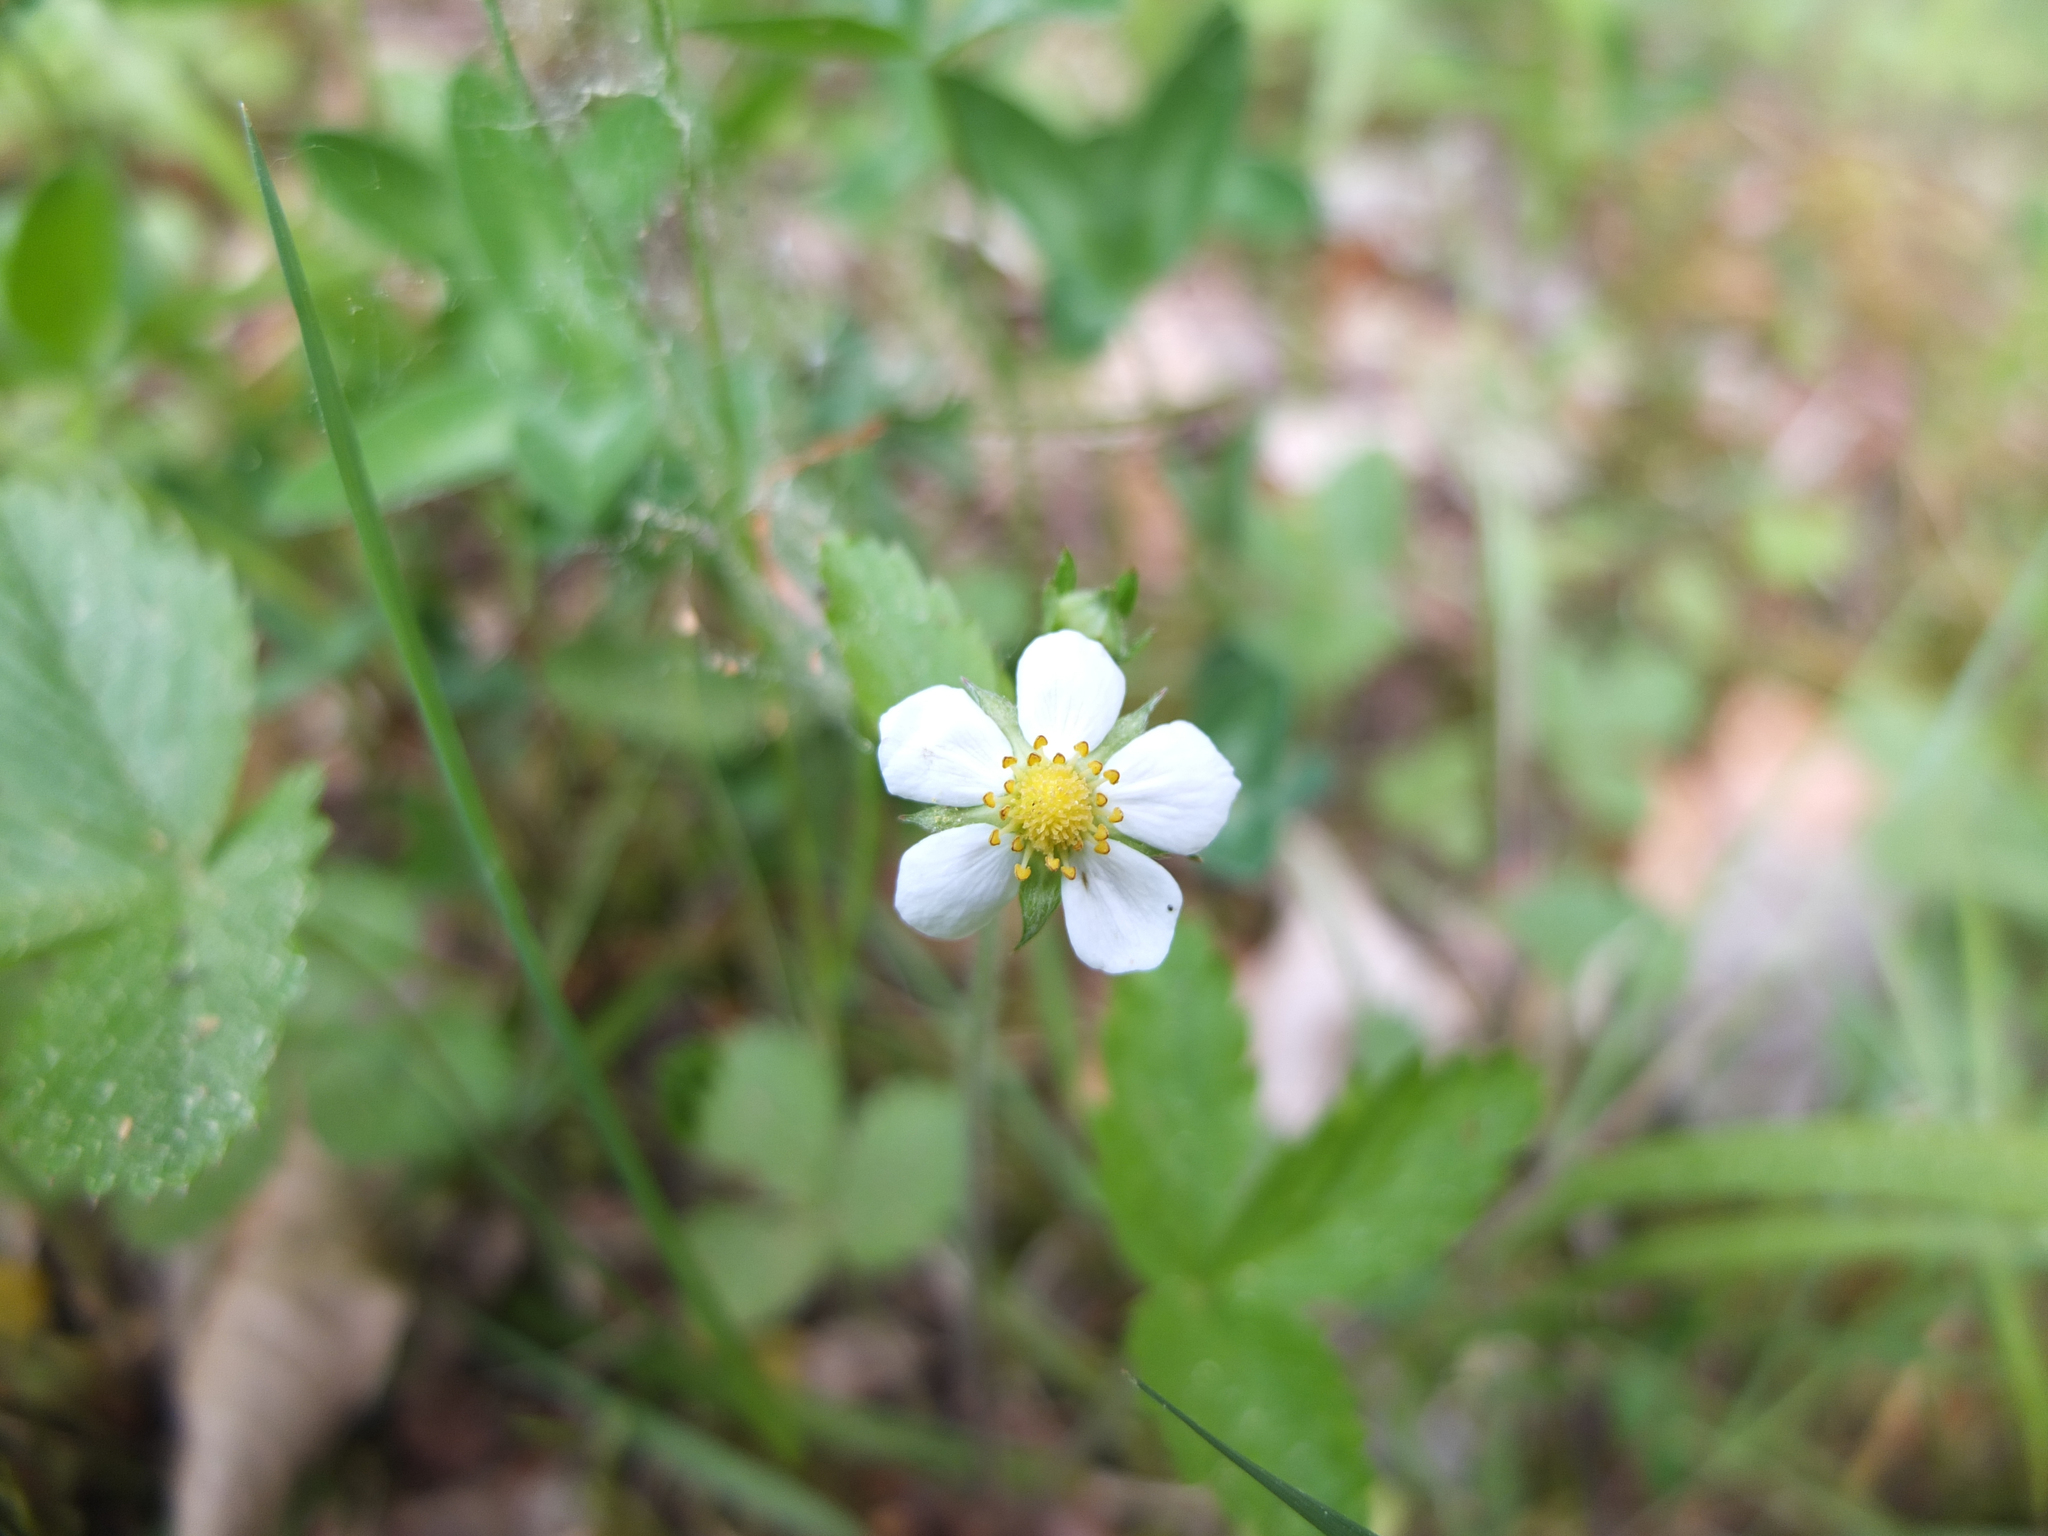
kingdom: Plantae
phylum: Tracheophyta
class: Magnoliopsida
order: Rosales
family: Rosaceae
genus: Fragaria
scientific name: Fragaria vesca
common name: Wild strawberry
